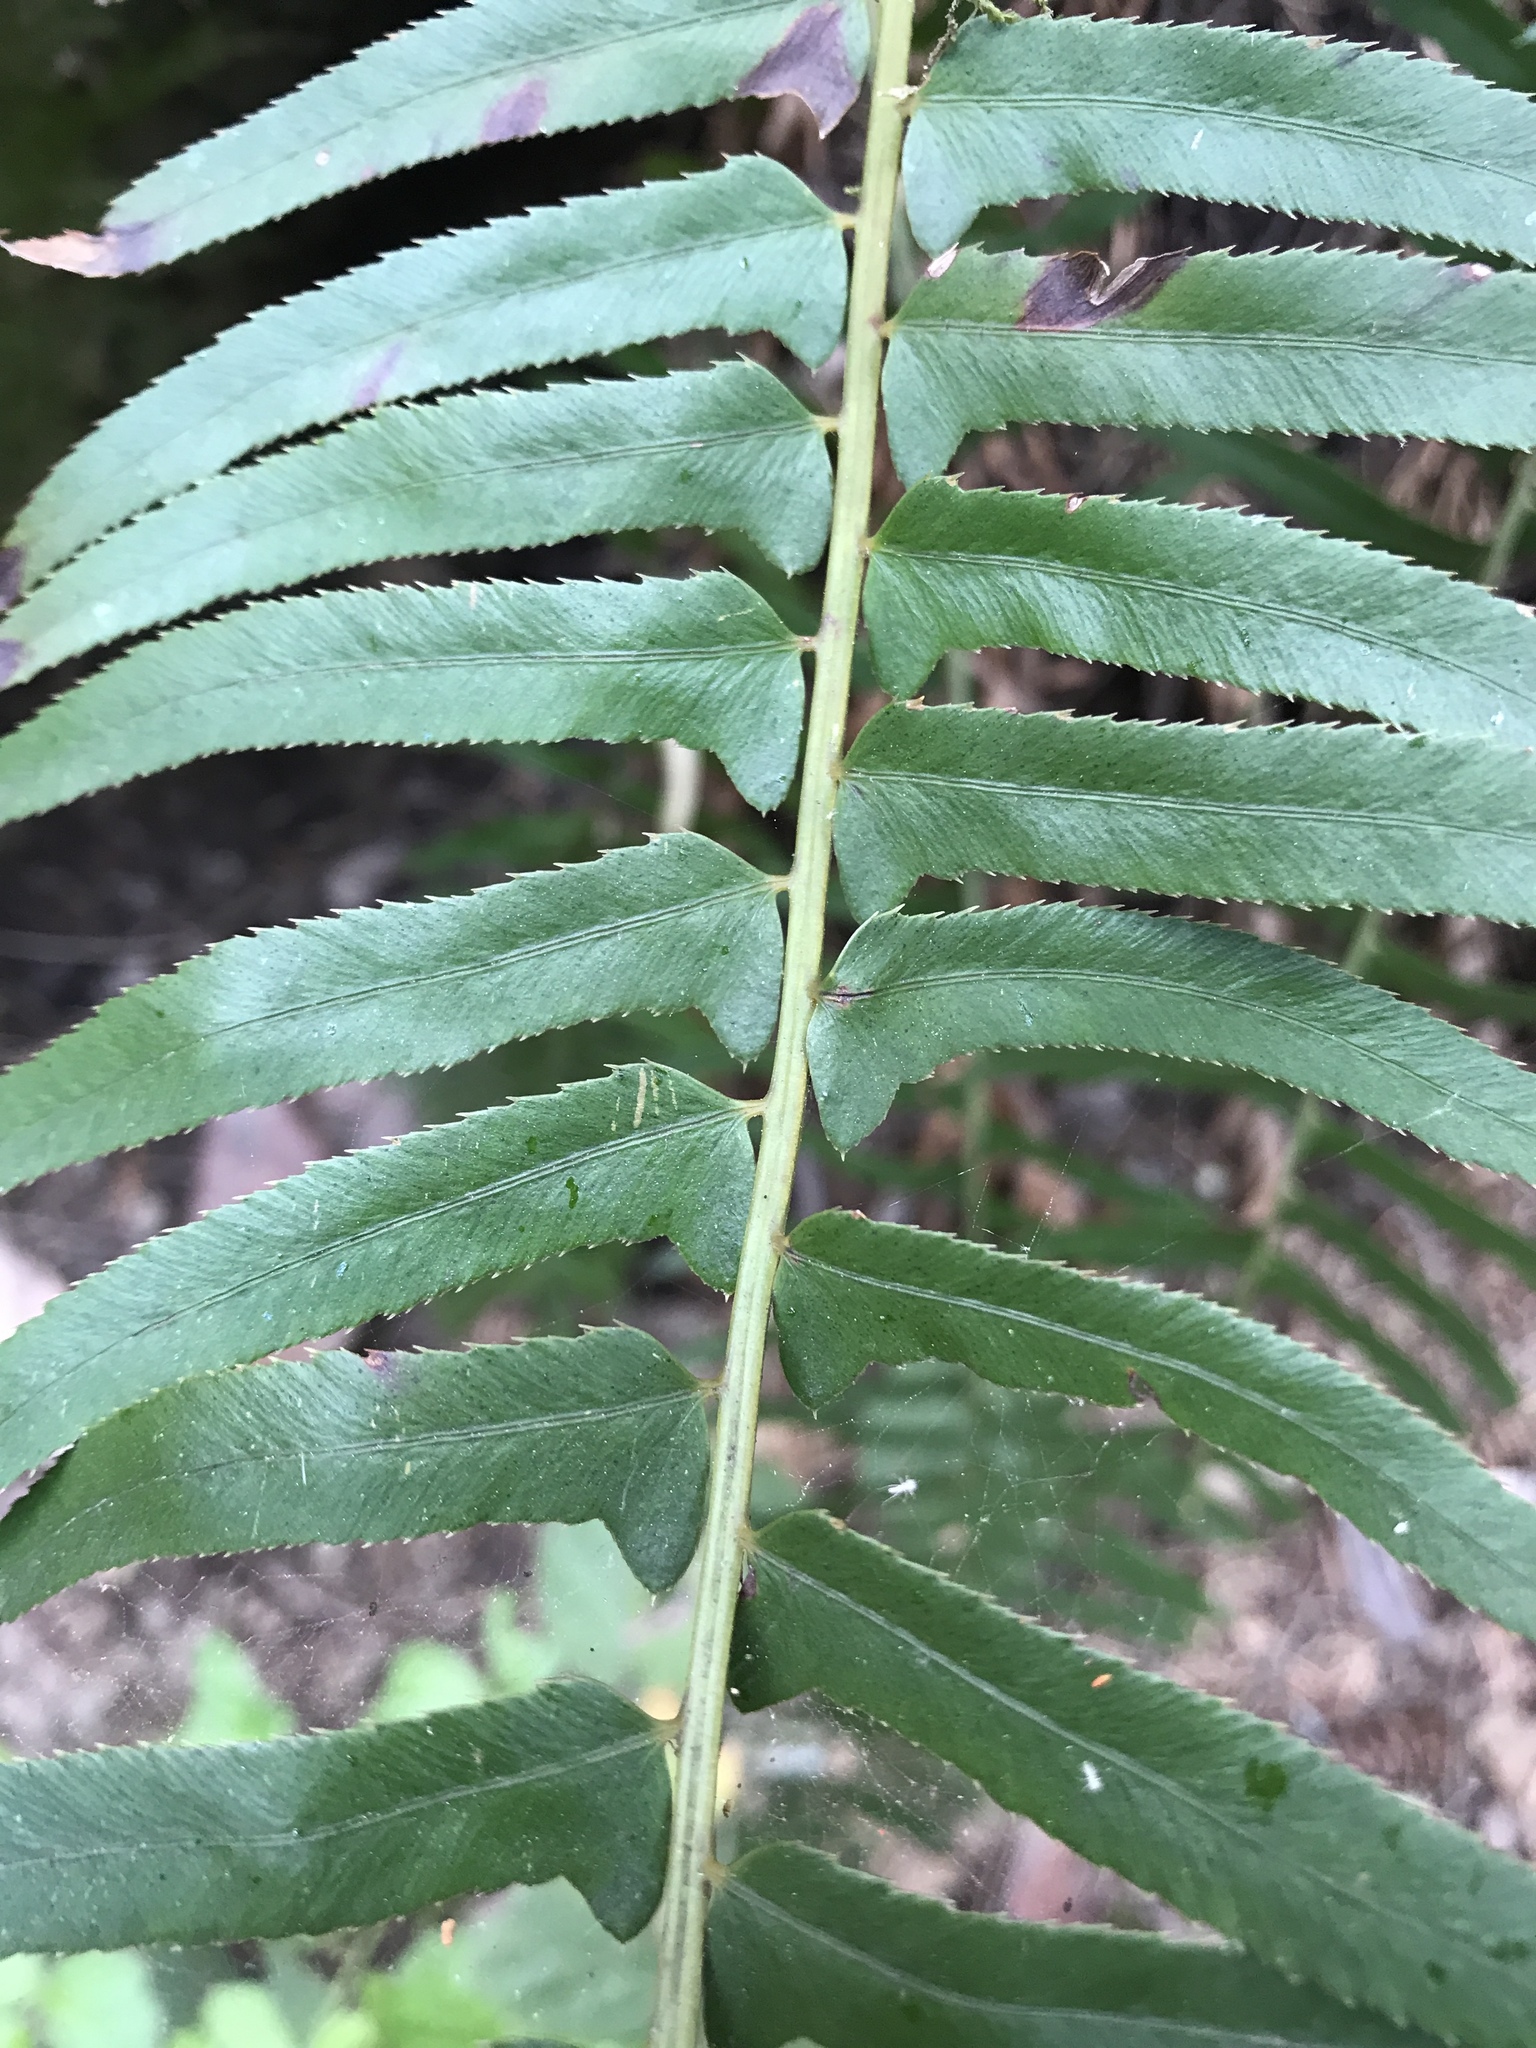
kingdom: Plantae
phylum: Tracheophyta
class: Polypodiopsida
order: Polypodiales
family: Dryopteridaceae
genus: Polystichum
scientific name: Polystichum munitum
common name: Western sword-fern
